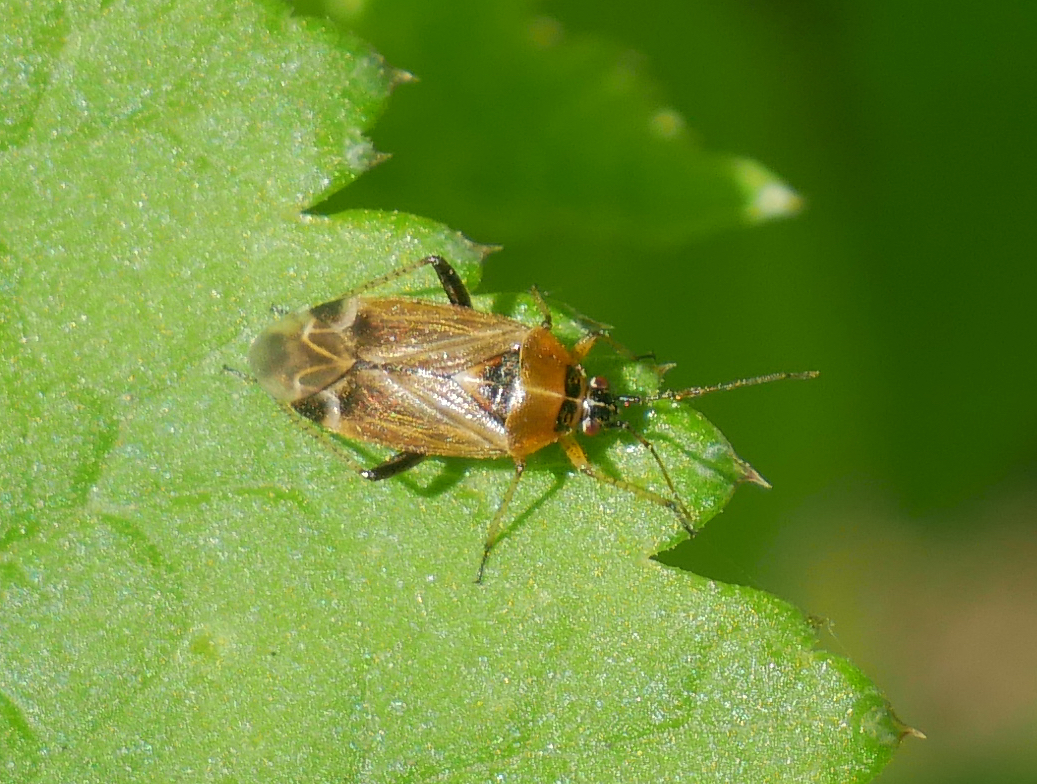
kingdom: Animalia
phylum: Arthropoda
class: Insecta
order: Hemiptera
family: Miridae
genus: Harpocera
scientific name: Harpocera thoracica
